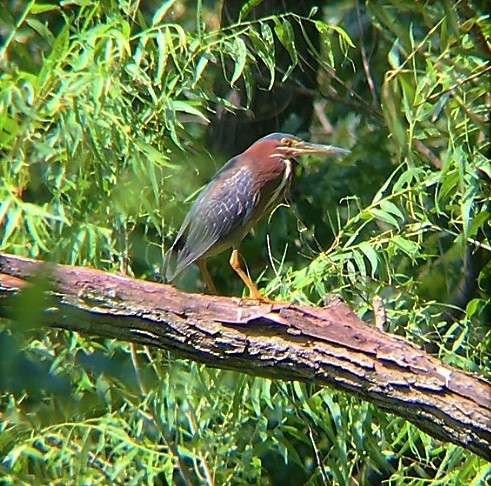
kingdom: Animalia
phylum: Chordata
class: Aves
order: Pelecaniformes
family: Ardeidae
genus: Butorides
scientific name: Butorides virescens
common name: Green heron
